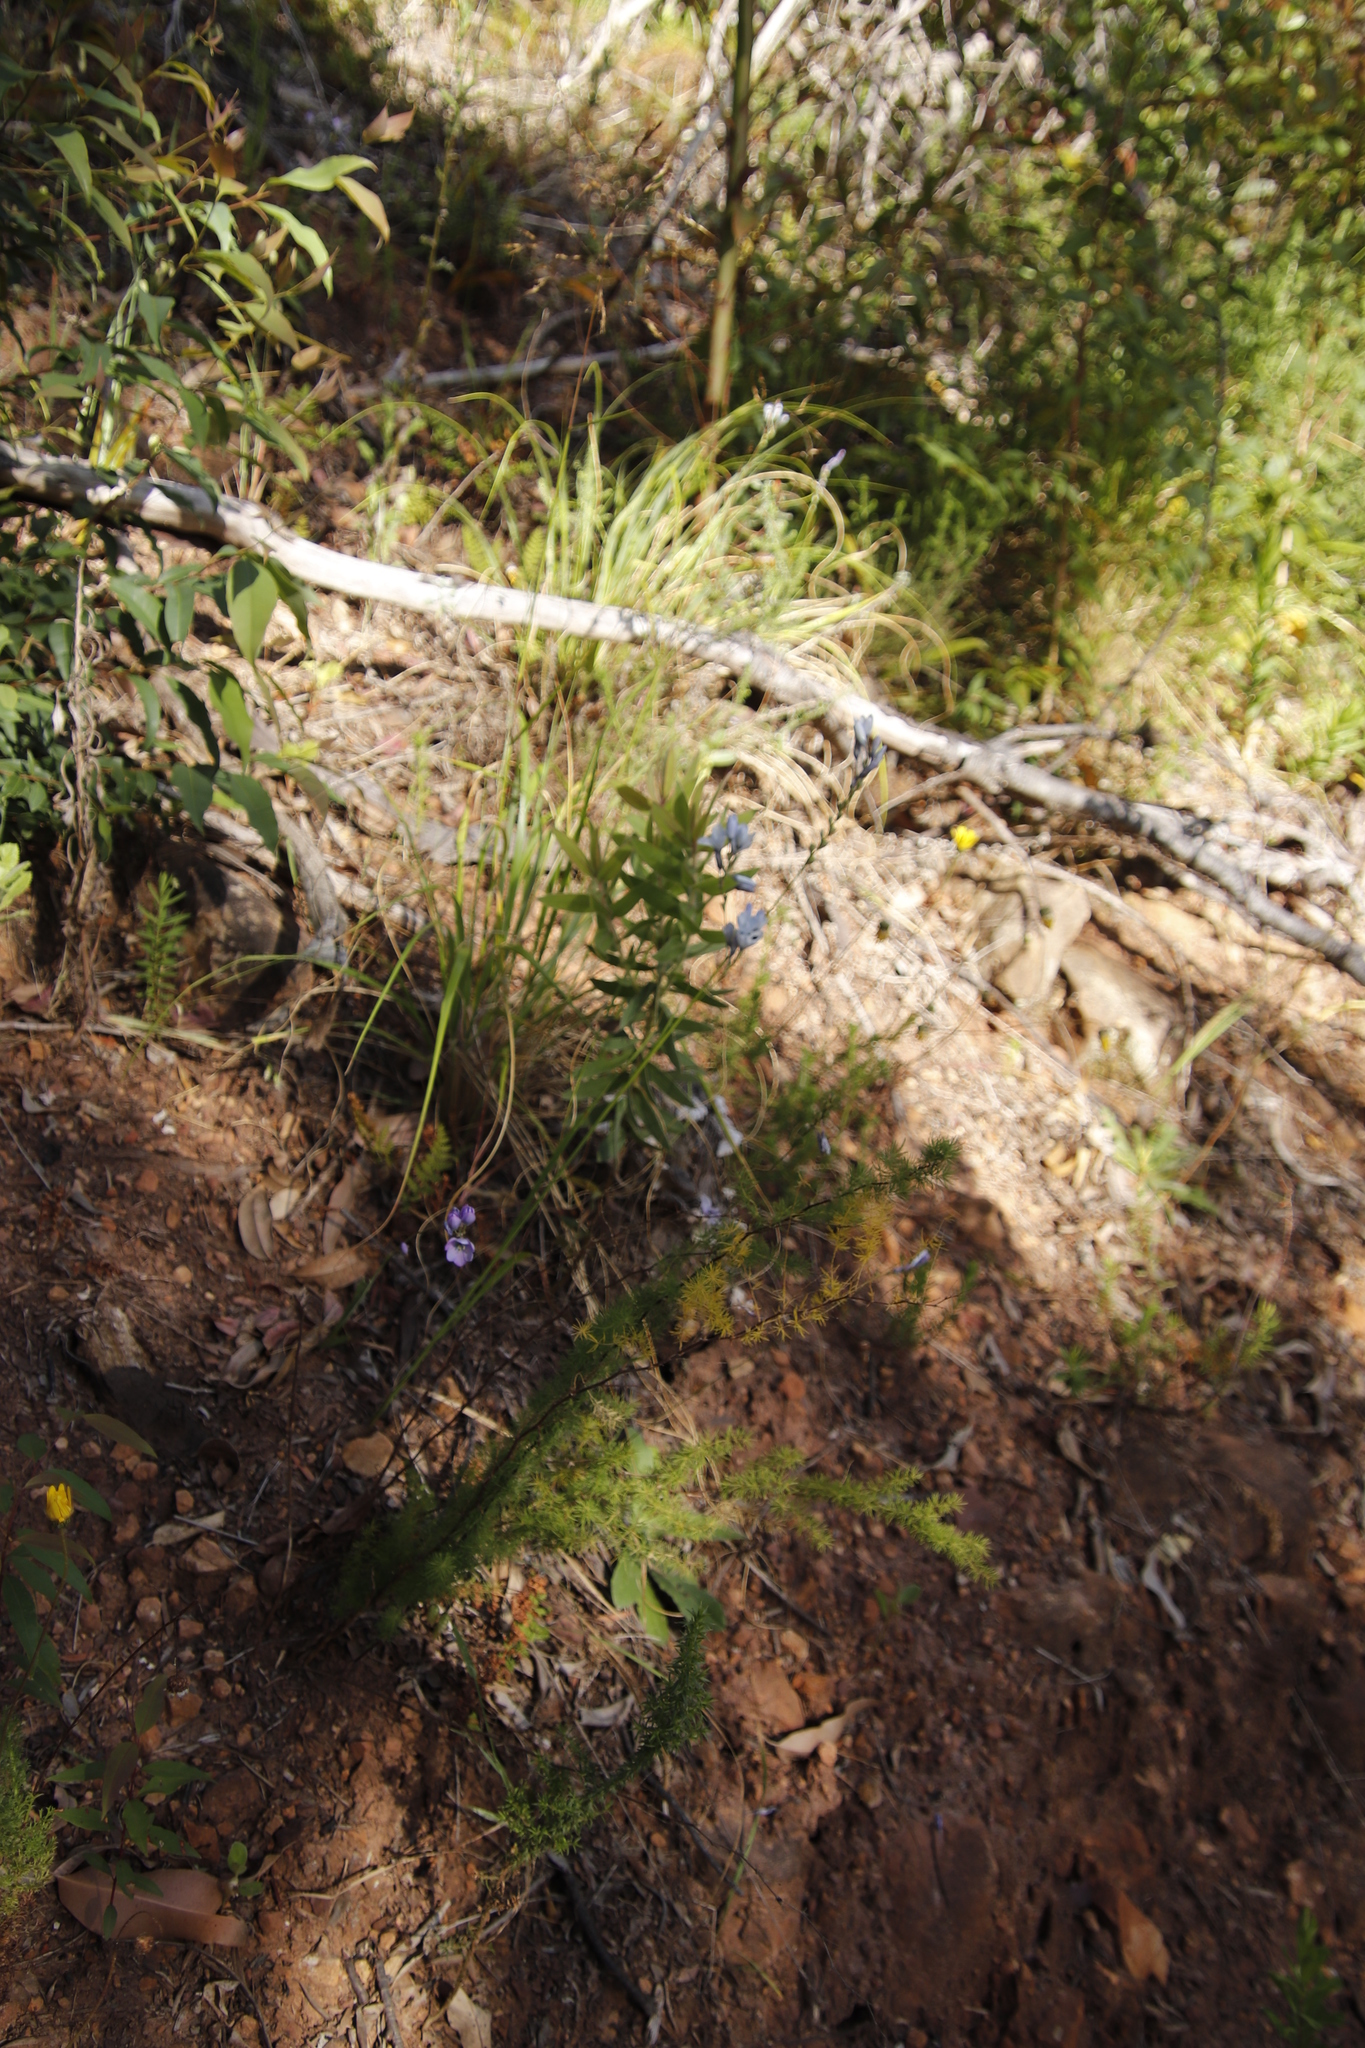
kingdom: Plantae
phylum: Tracheophyta
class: Liliopsida
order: Asparagales
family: Iridaceae
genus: Ixia
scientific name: Ixia polystachya
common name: White-and-yellow-flower cornlily
